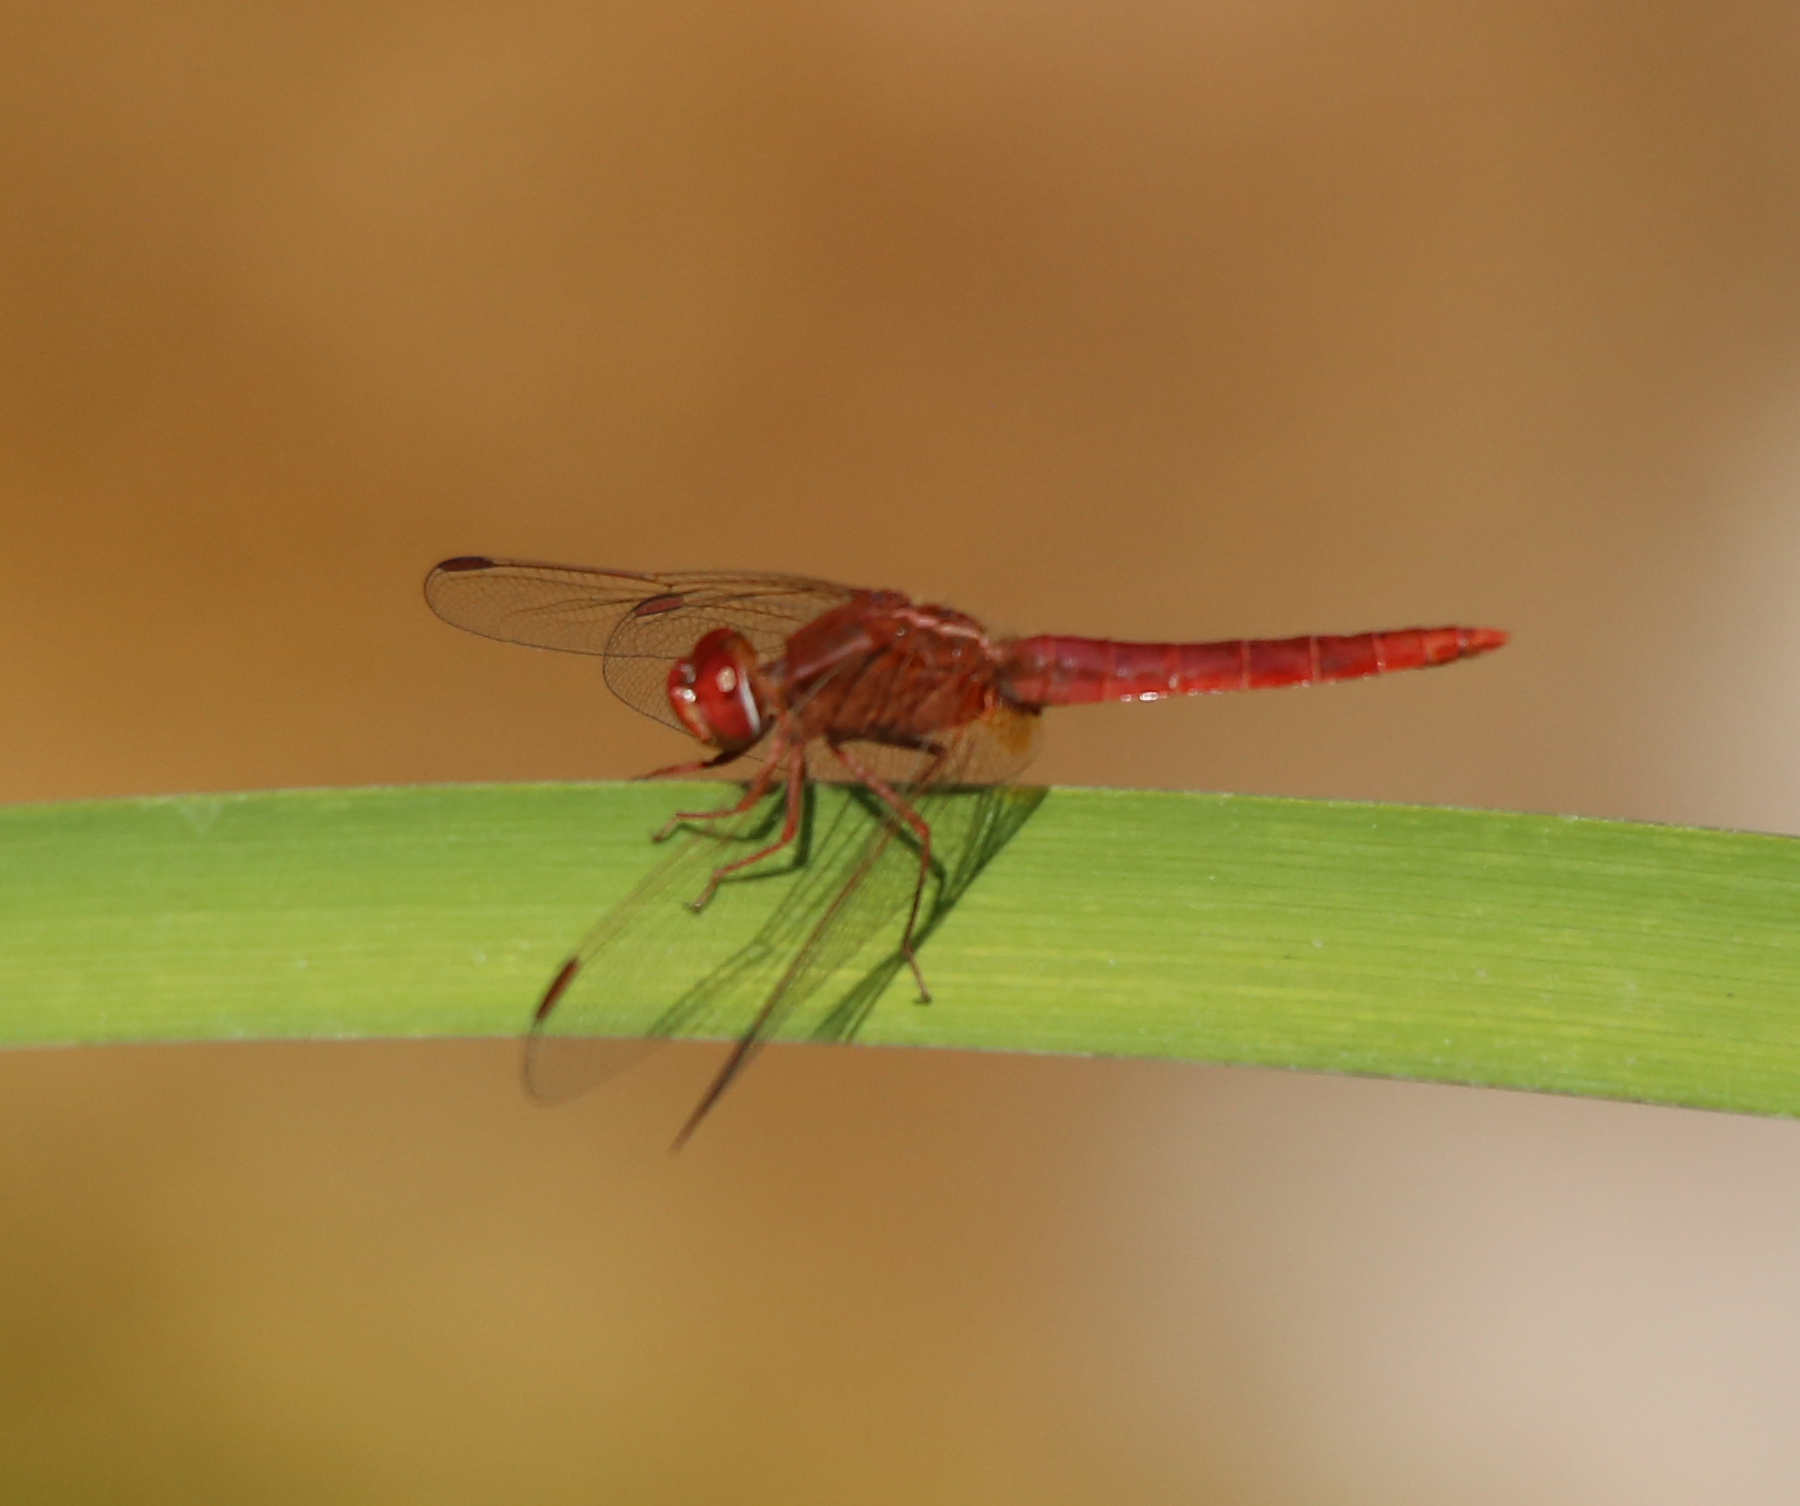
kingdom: Animalia
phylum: Arthropoda
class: Insecta
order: Odonata
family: Libellulidae
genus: Crocothemis
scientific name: Crocothemis erythraea
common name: Scarlet dragonfly
